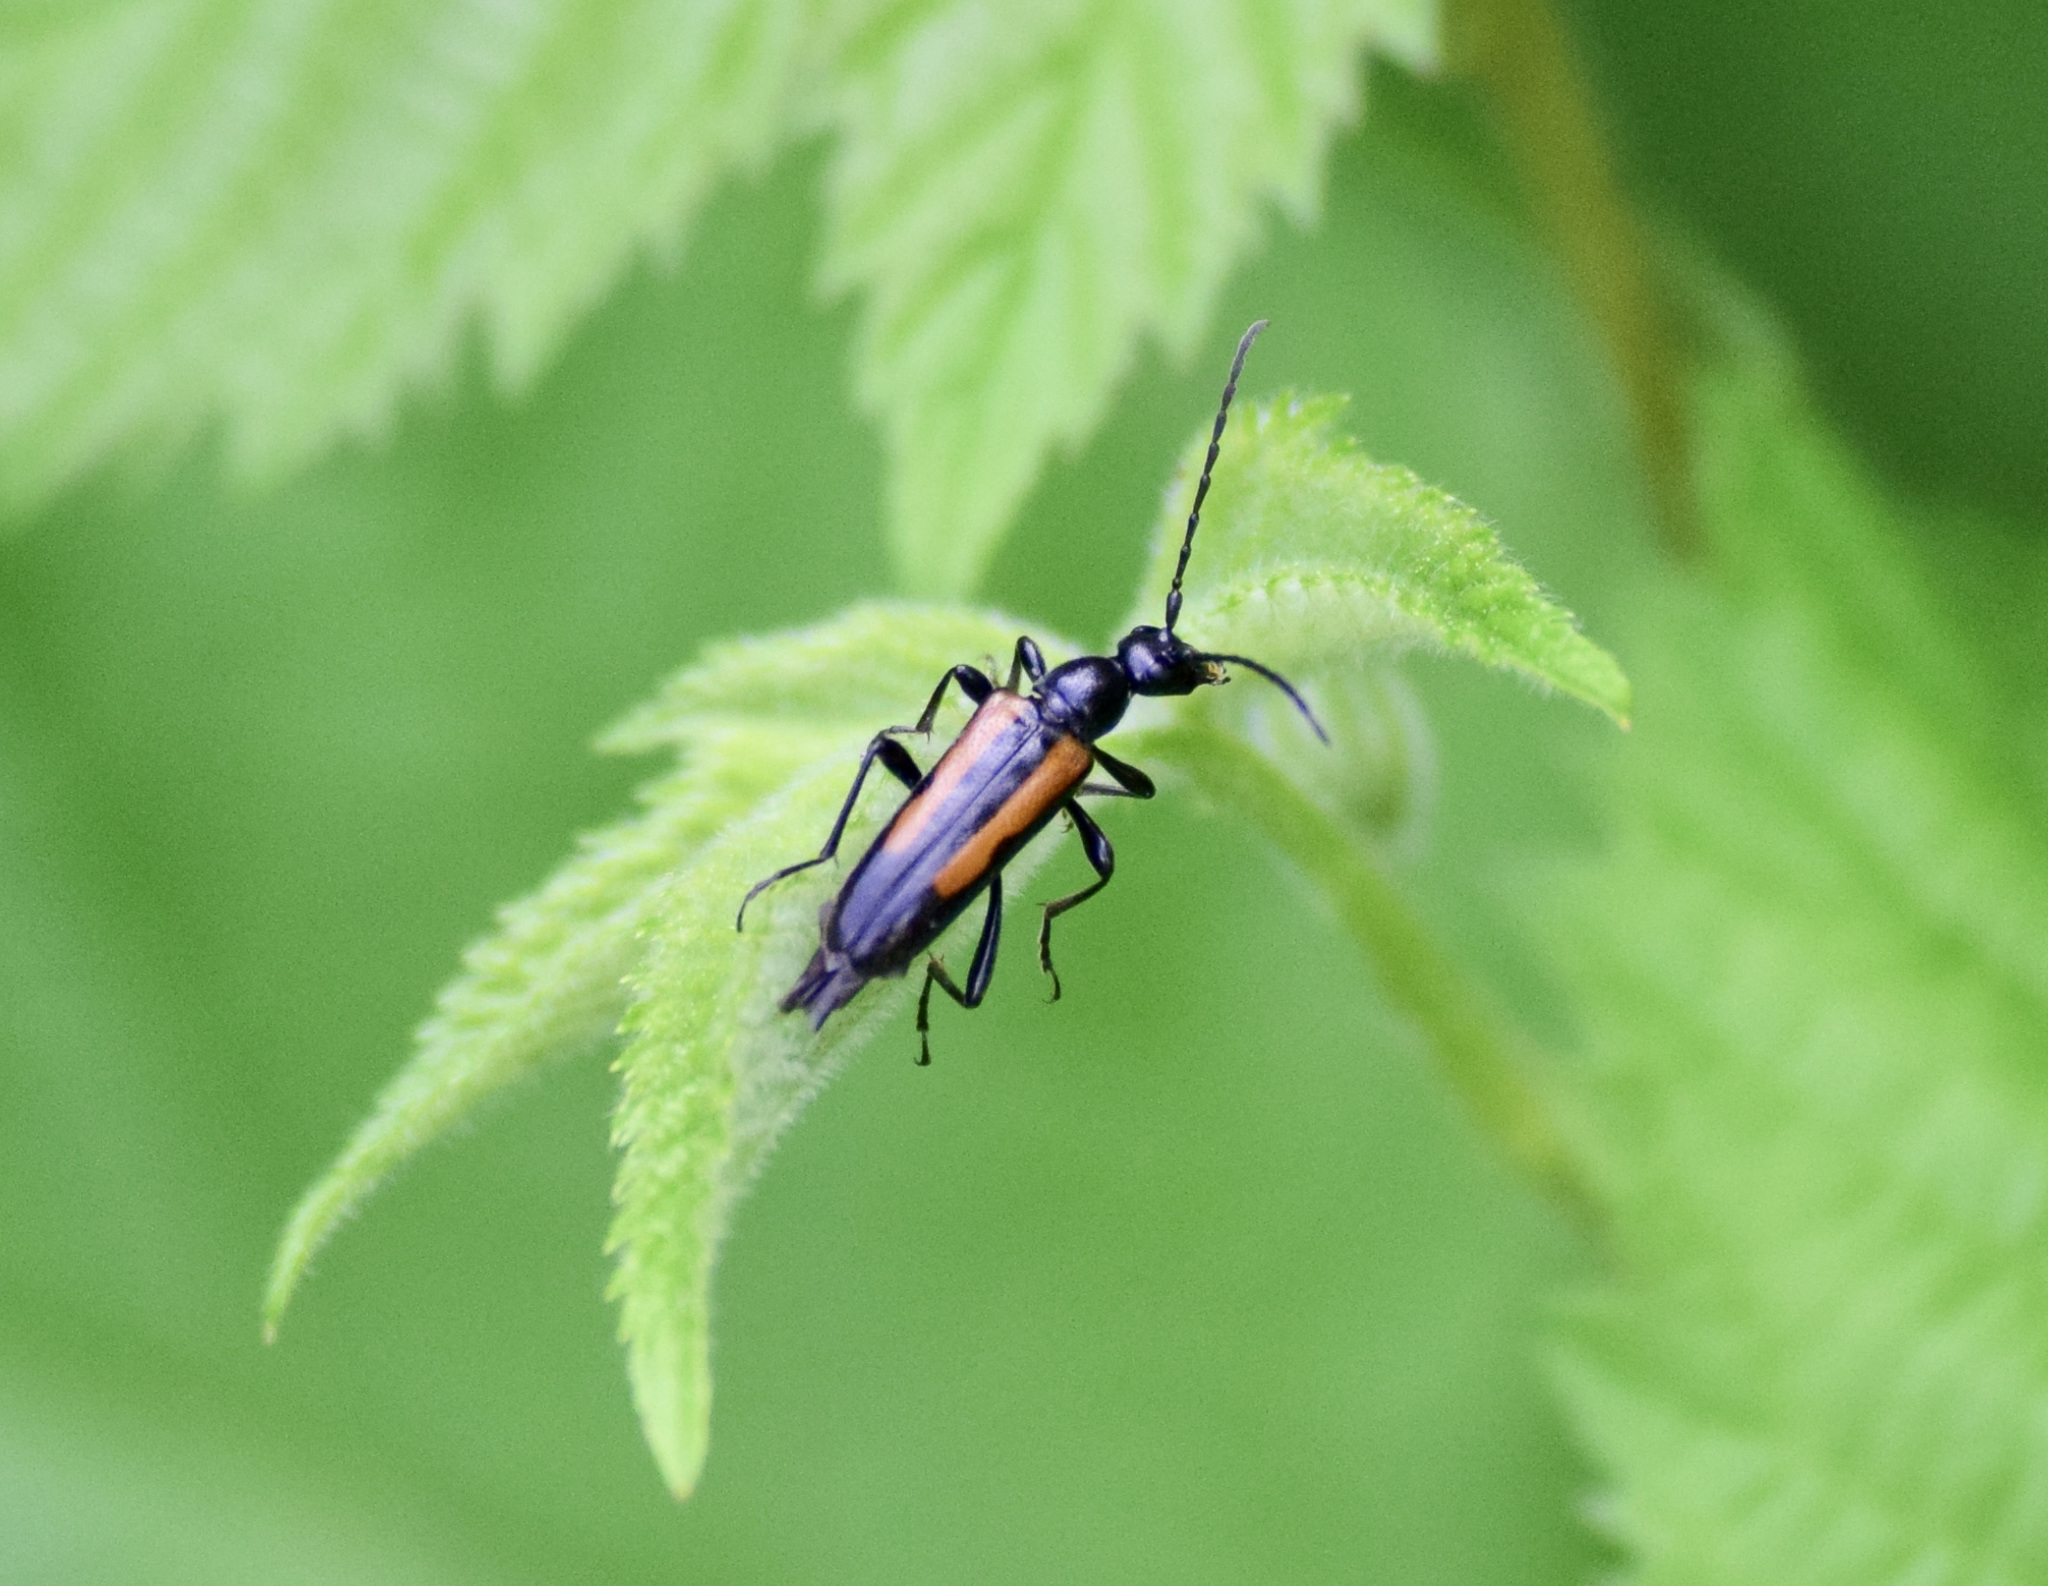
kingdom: Animalia
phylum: Arthropoda
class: Insecta
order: Coleoptera
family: Cerambycidae
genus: Strangalepta
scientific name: Strangalepta abbreviata
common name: Strangalepta flower longhorn beetle
